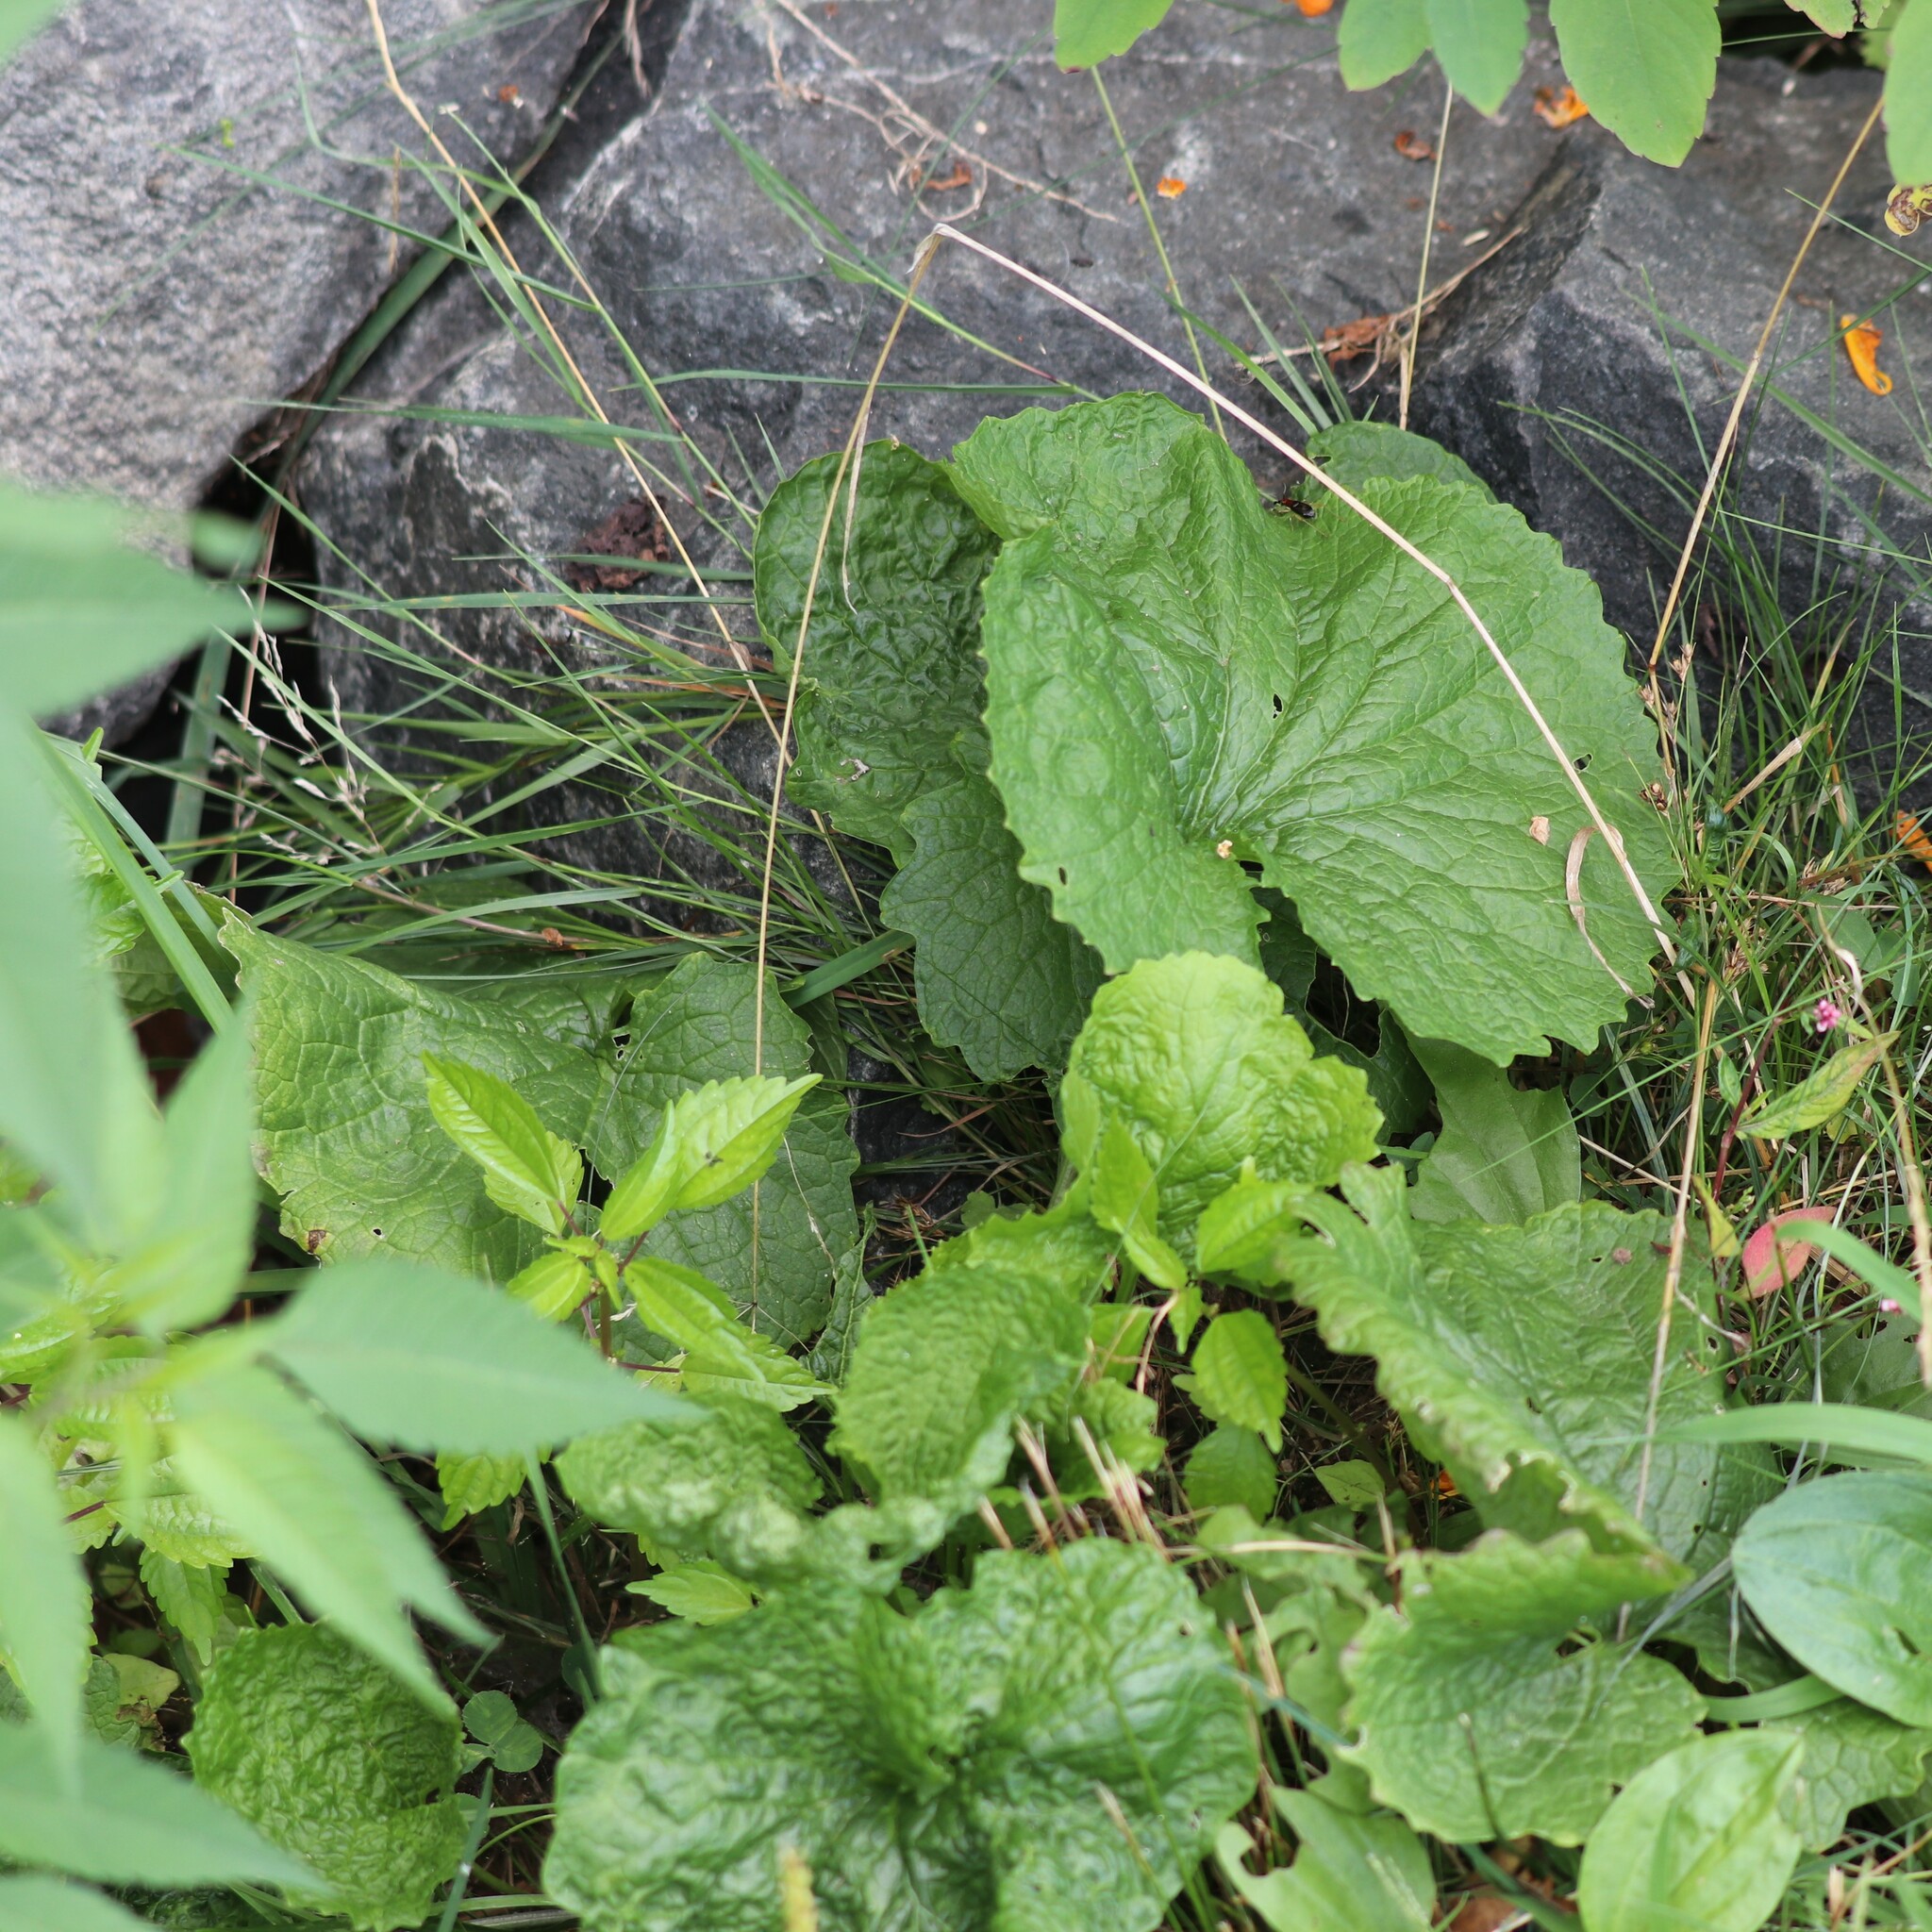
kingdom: Plantae
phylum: Tracheophyta
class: Magnoliopsida
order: Brassicales
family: Brassicaceae
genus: Alliaria
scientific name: Alliaria petiolata
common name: Garlic mustard
